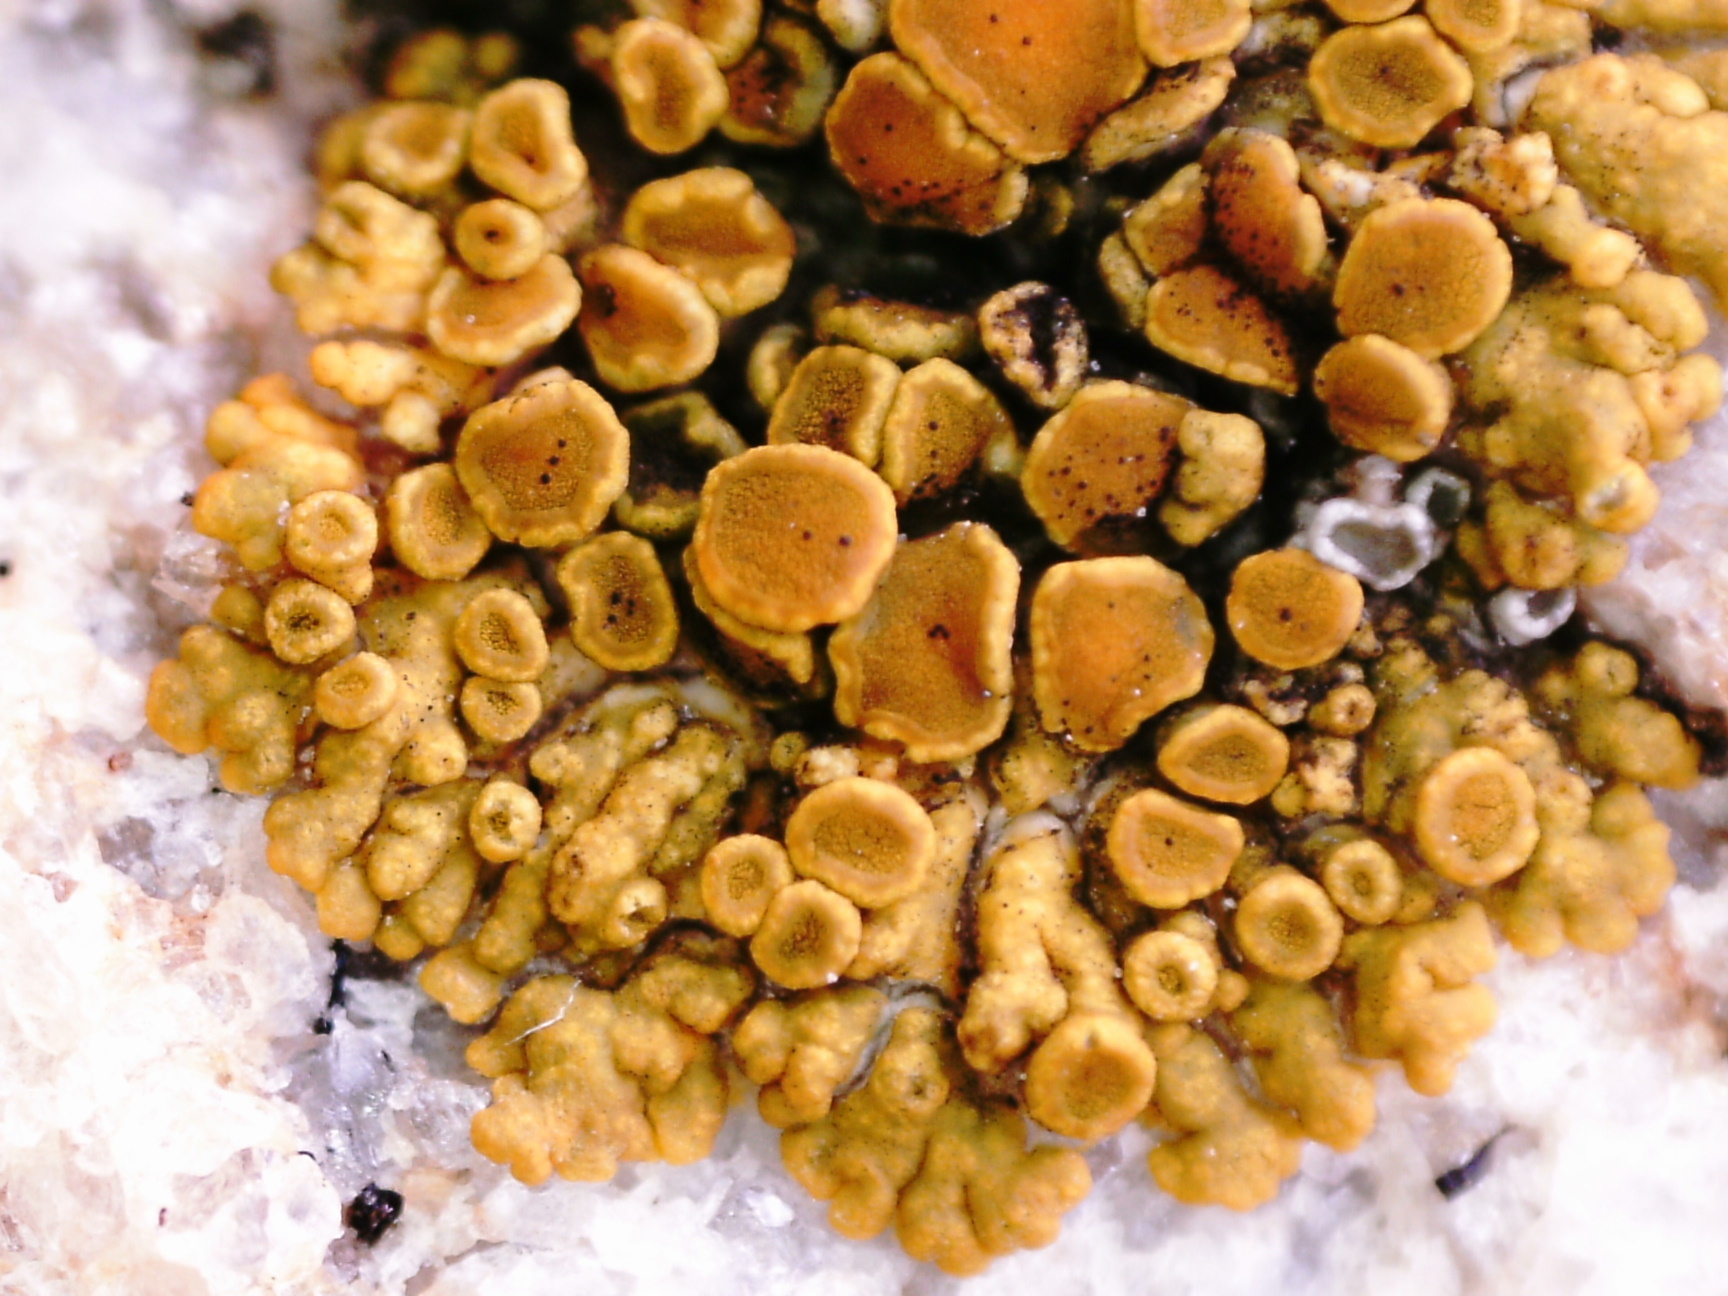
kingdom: Fungi
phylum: Ascomycota
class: Lecanoromycetes
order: Teloschistales
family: Teloschistaceae
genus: Athallia
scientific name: Athallia scopularis
